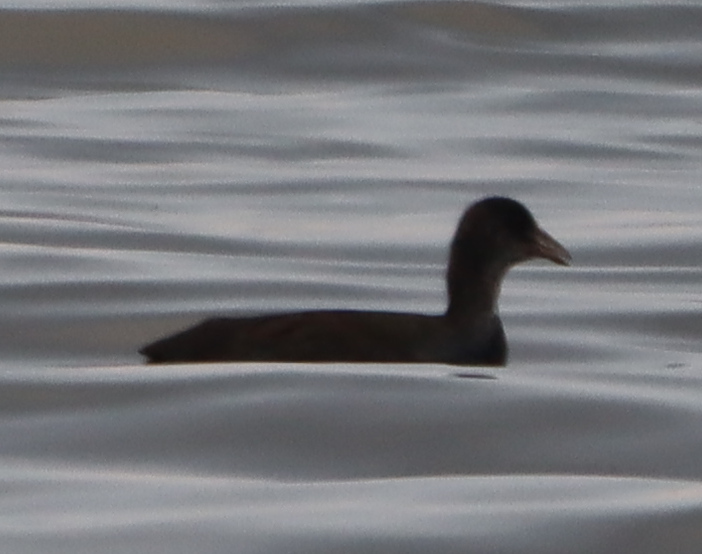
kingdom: Animalia
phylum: Chordata
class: Aves
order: Gruiformes
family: Rallidae
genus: Fulica
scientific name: Fulica americana
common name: American coot
